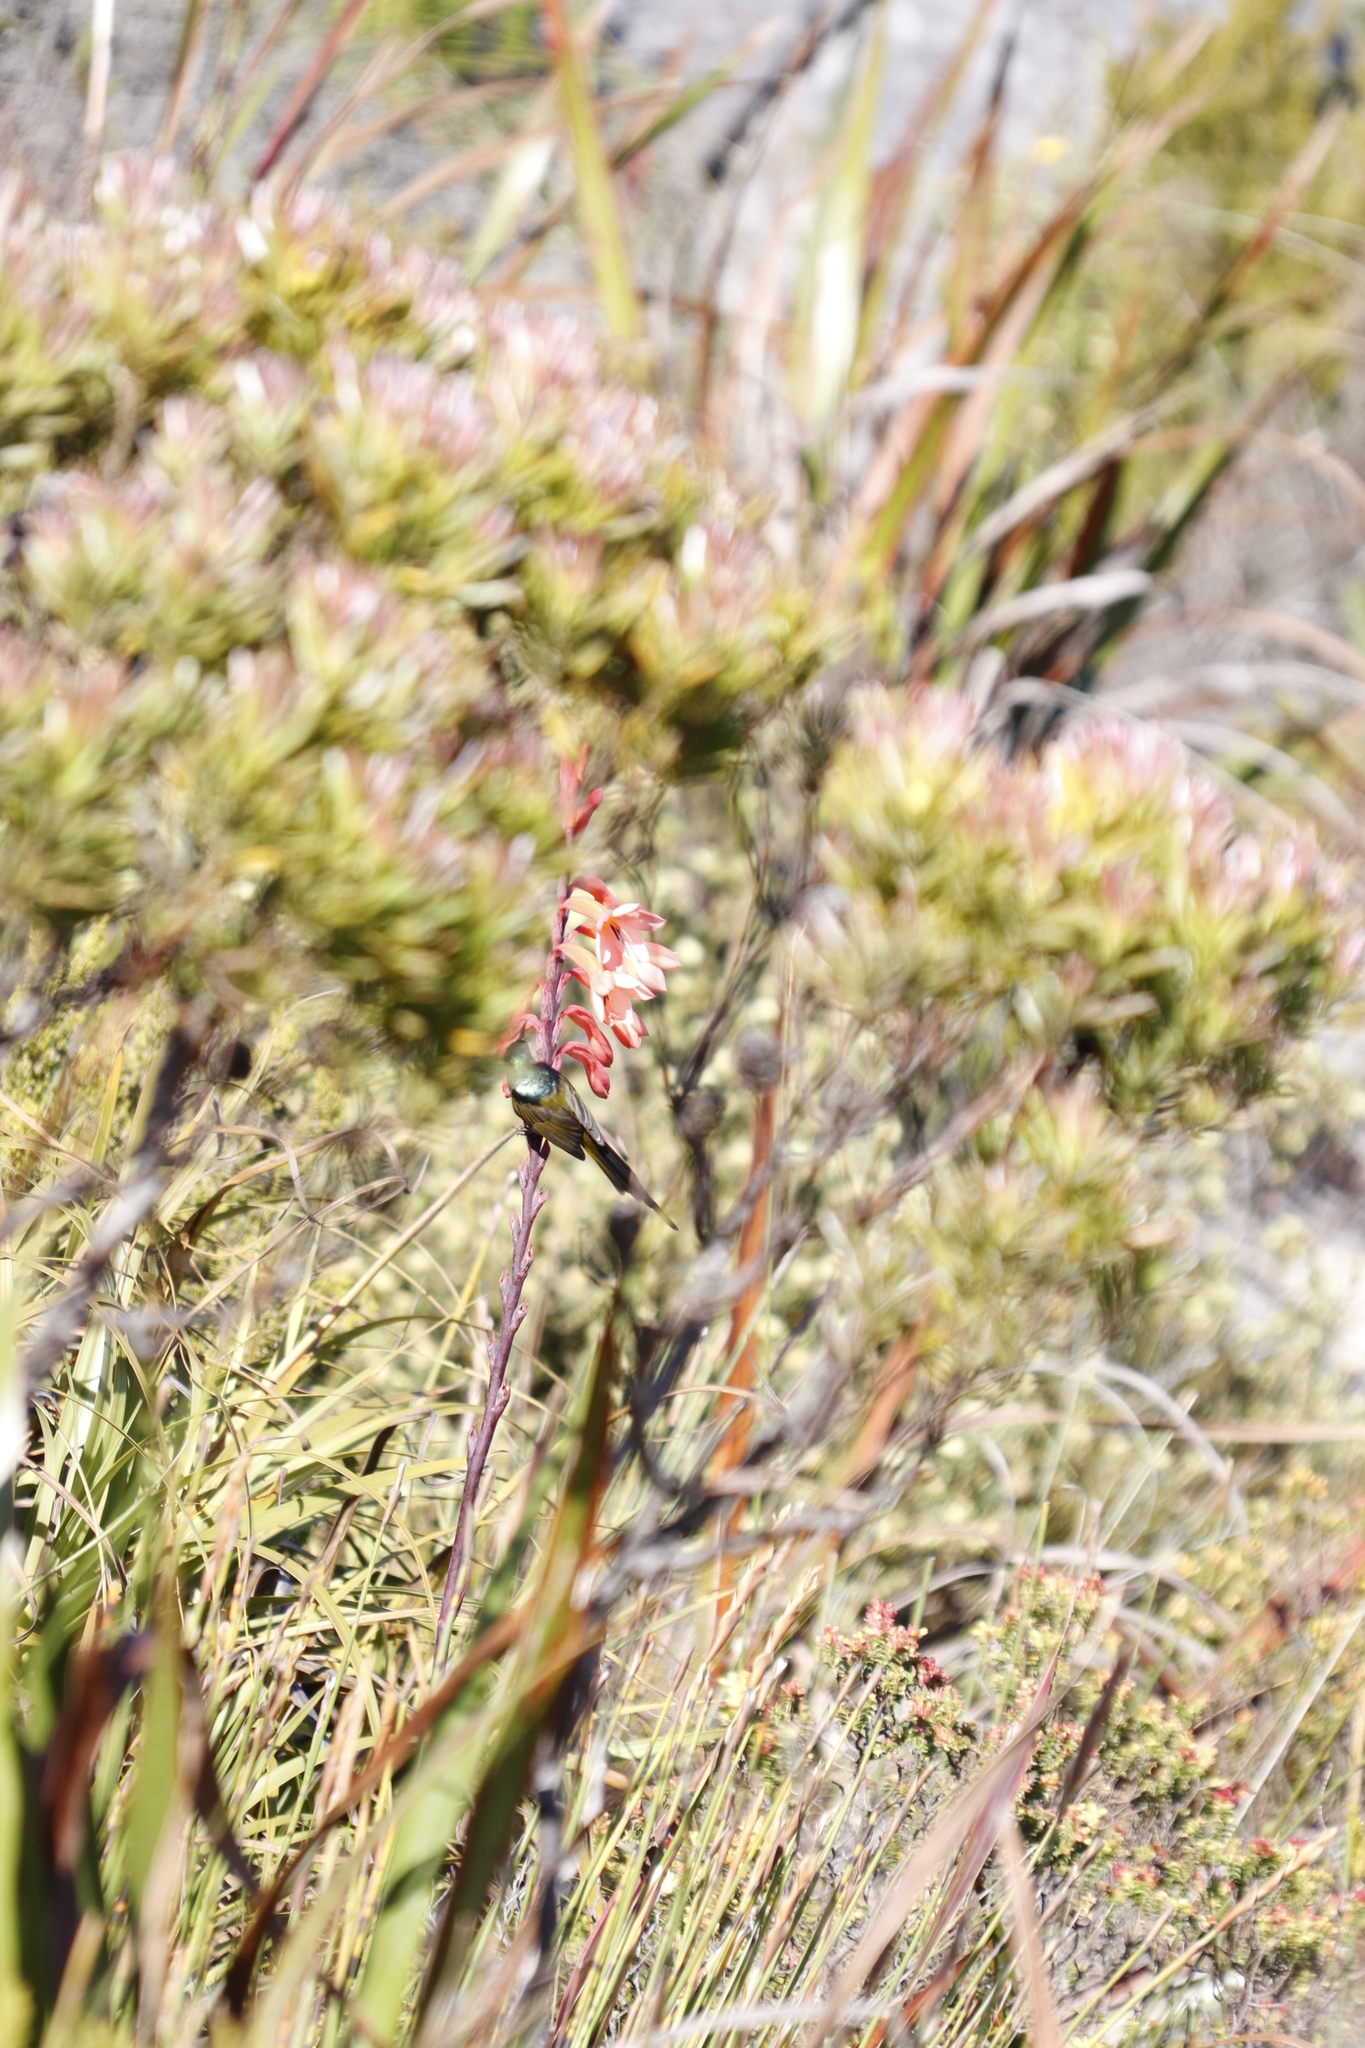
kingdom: Plantae
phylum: Tracheophyta
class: Liliopsida
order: Asparagales
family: Iridaceae
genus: Watsonia
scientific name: Watsonia tabularis
